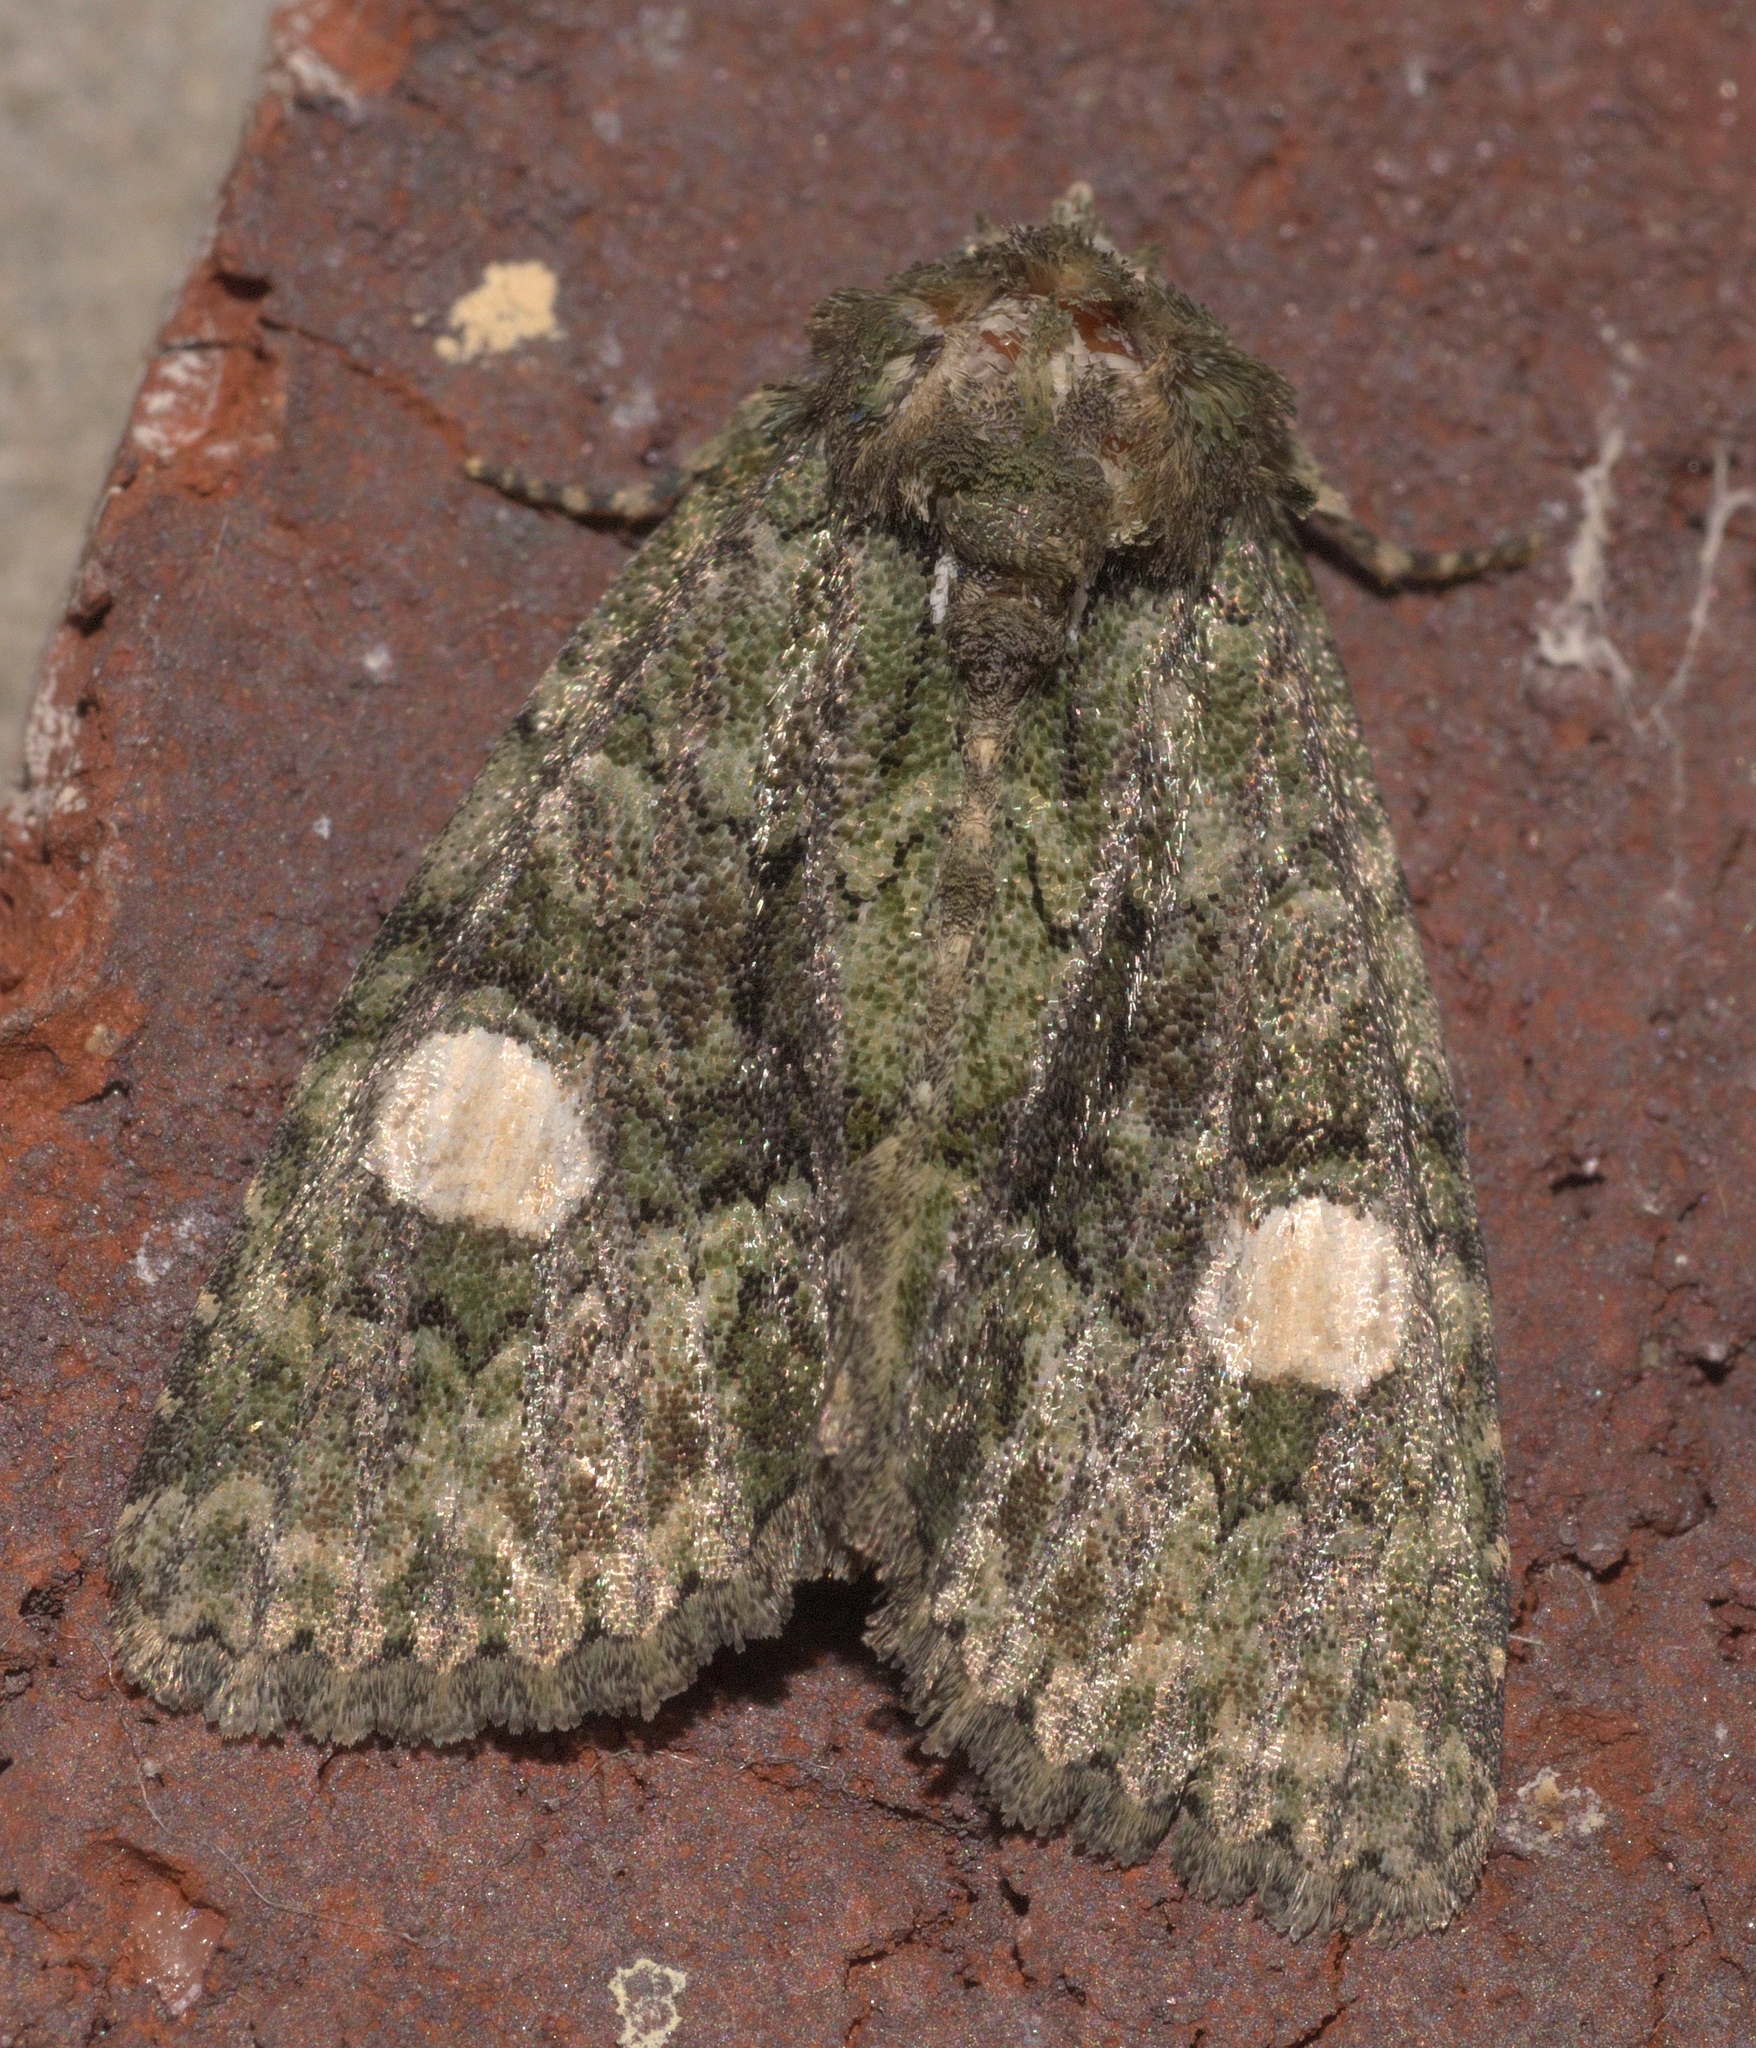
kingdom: Animalia
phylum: Arthropoda
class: Insecta
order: Lepidoptera
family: Noctuidae
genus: Phosphila
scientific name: Phosphila miselioides
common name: Spotted phosphila moth
